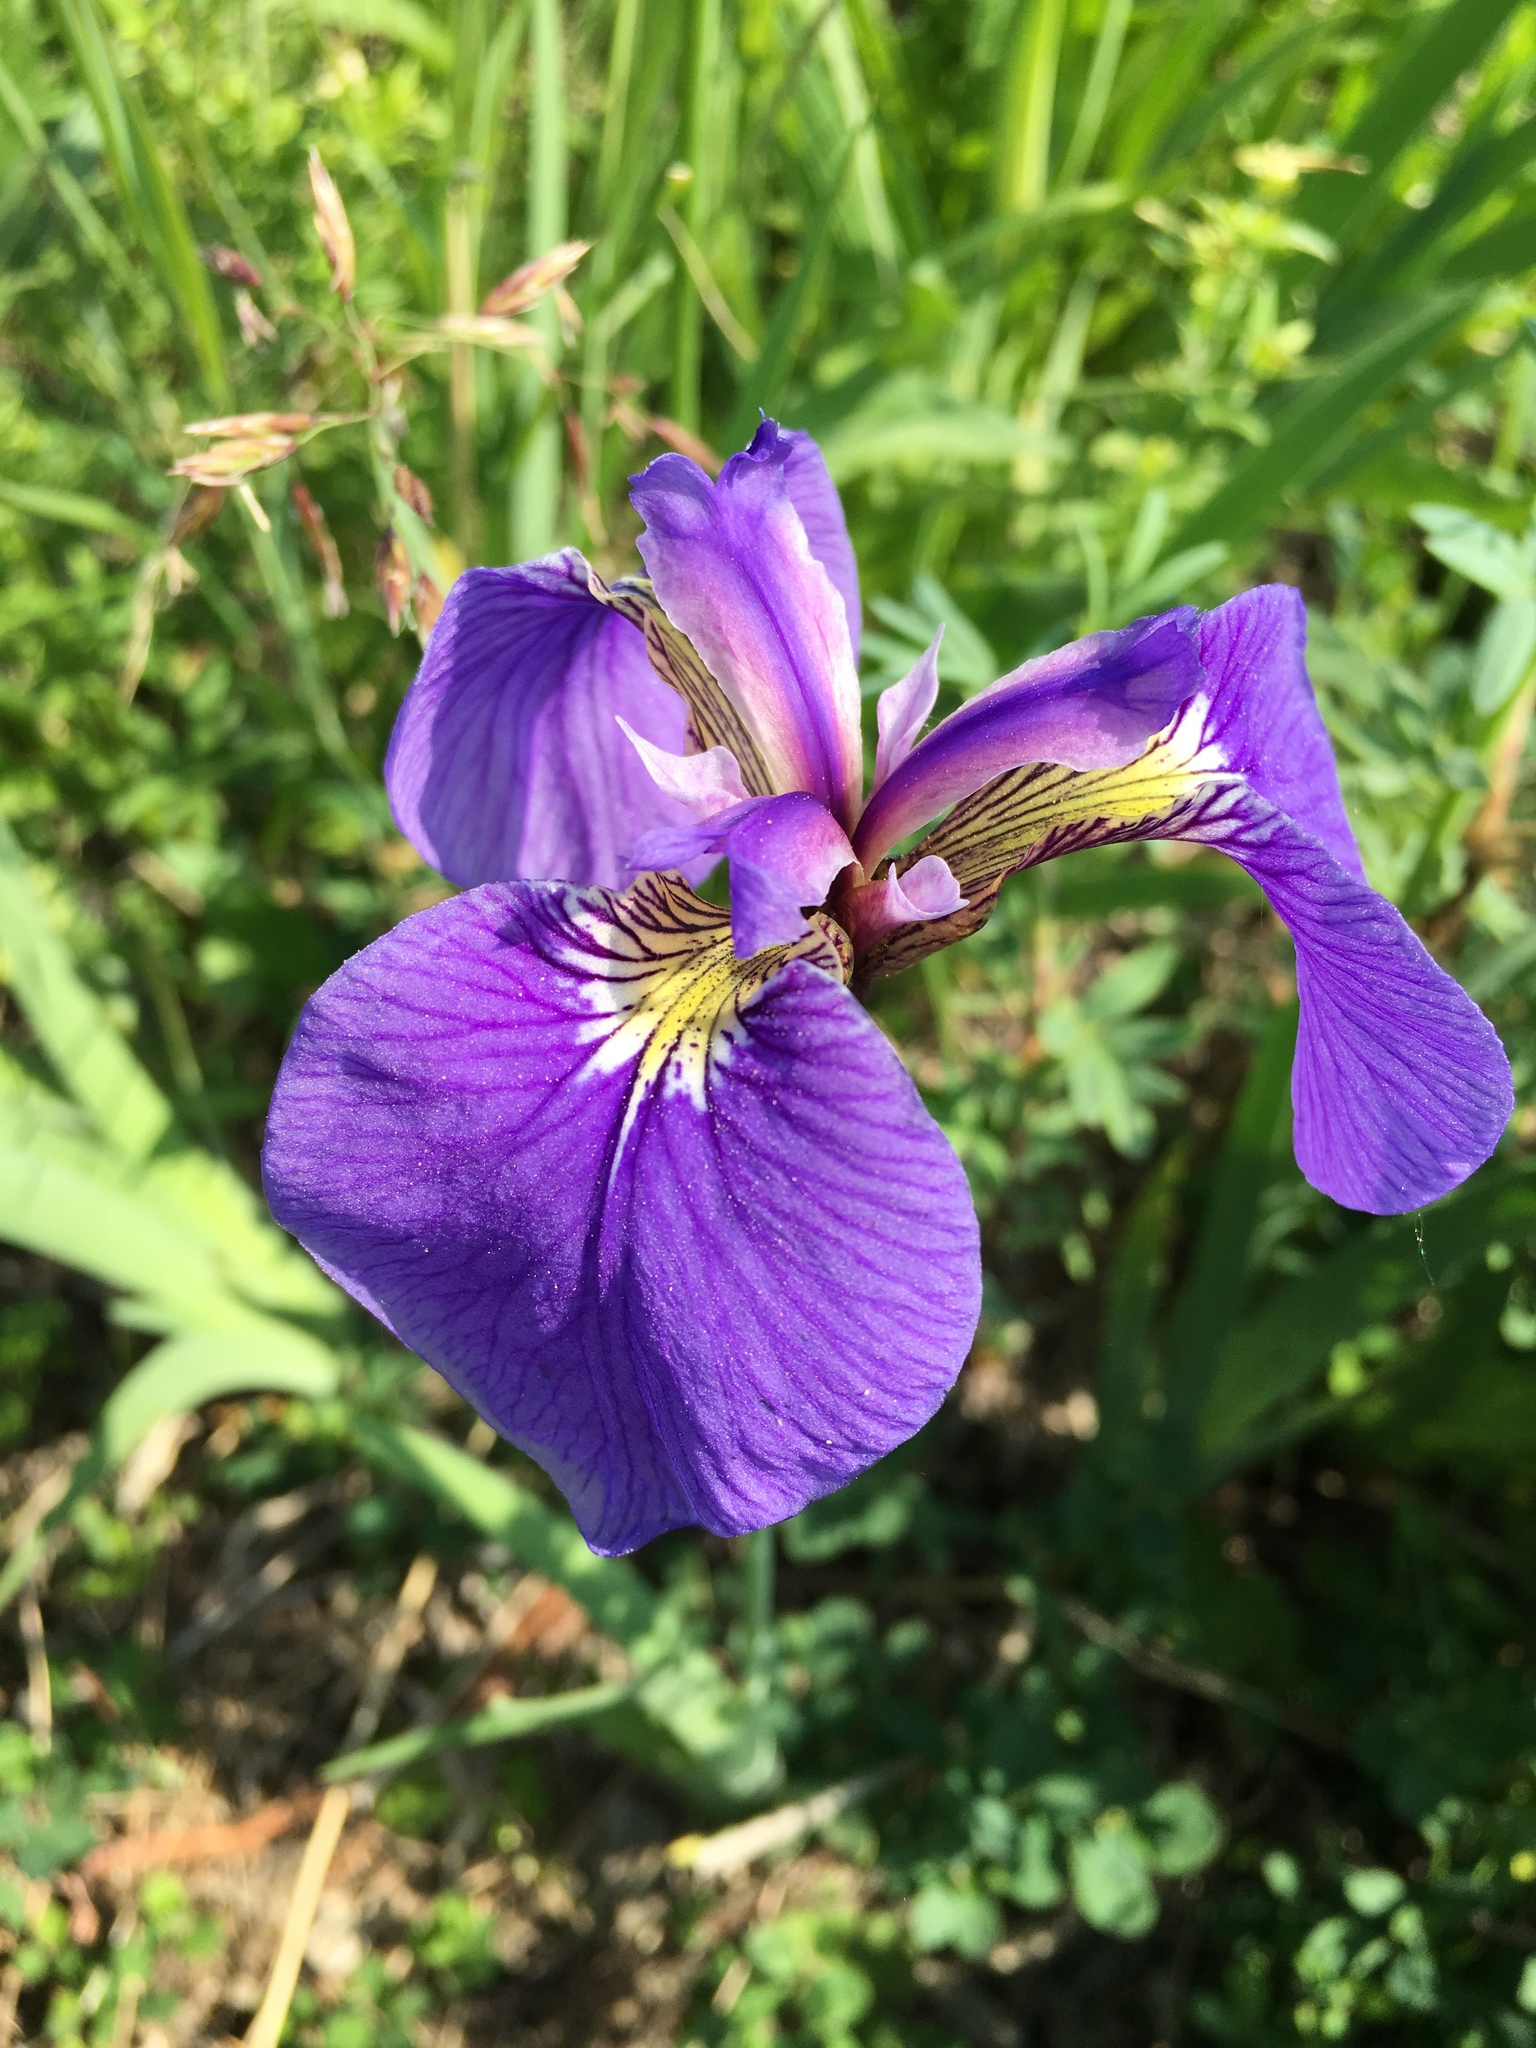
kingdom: Plantae
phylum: Tracheophyta
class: Liliopsida
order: Asparagales
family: Iridaceae
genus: Iris
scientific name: Iris setosa
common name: Arctic blue flag
